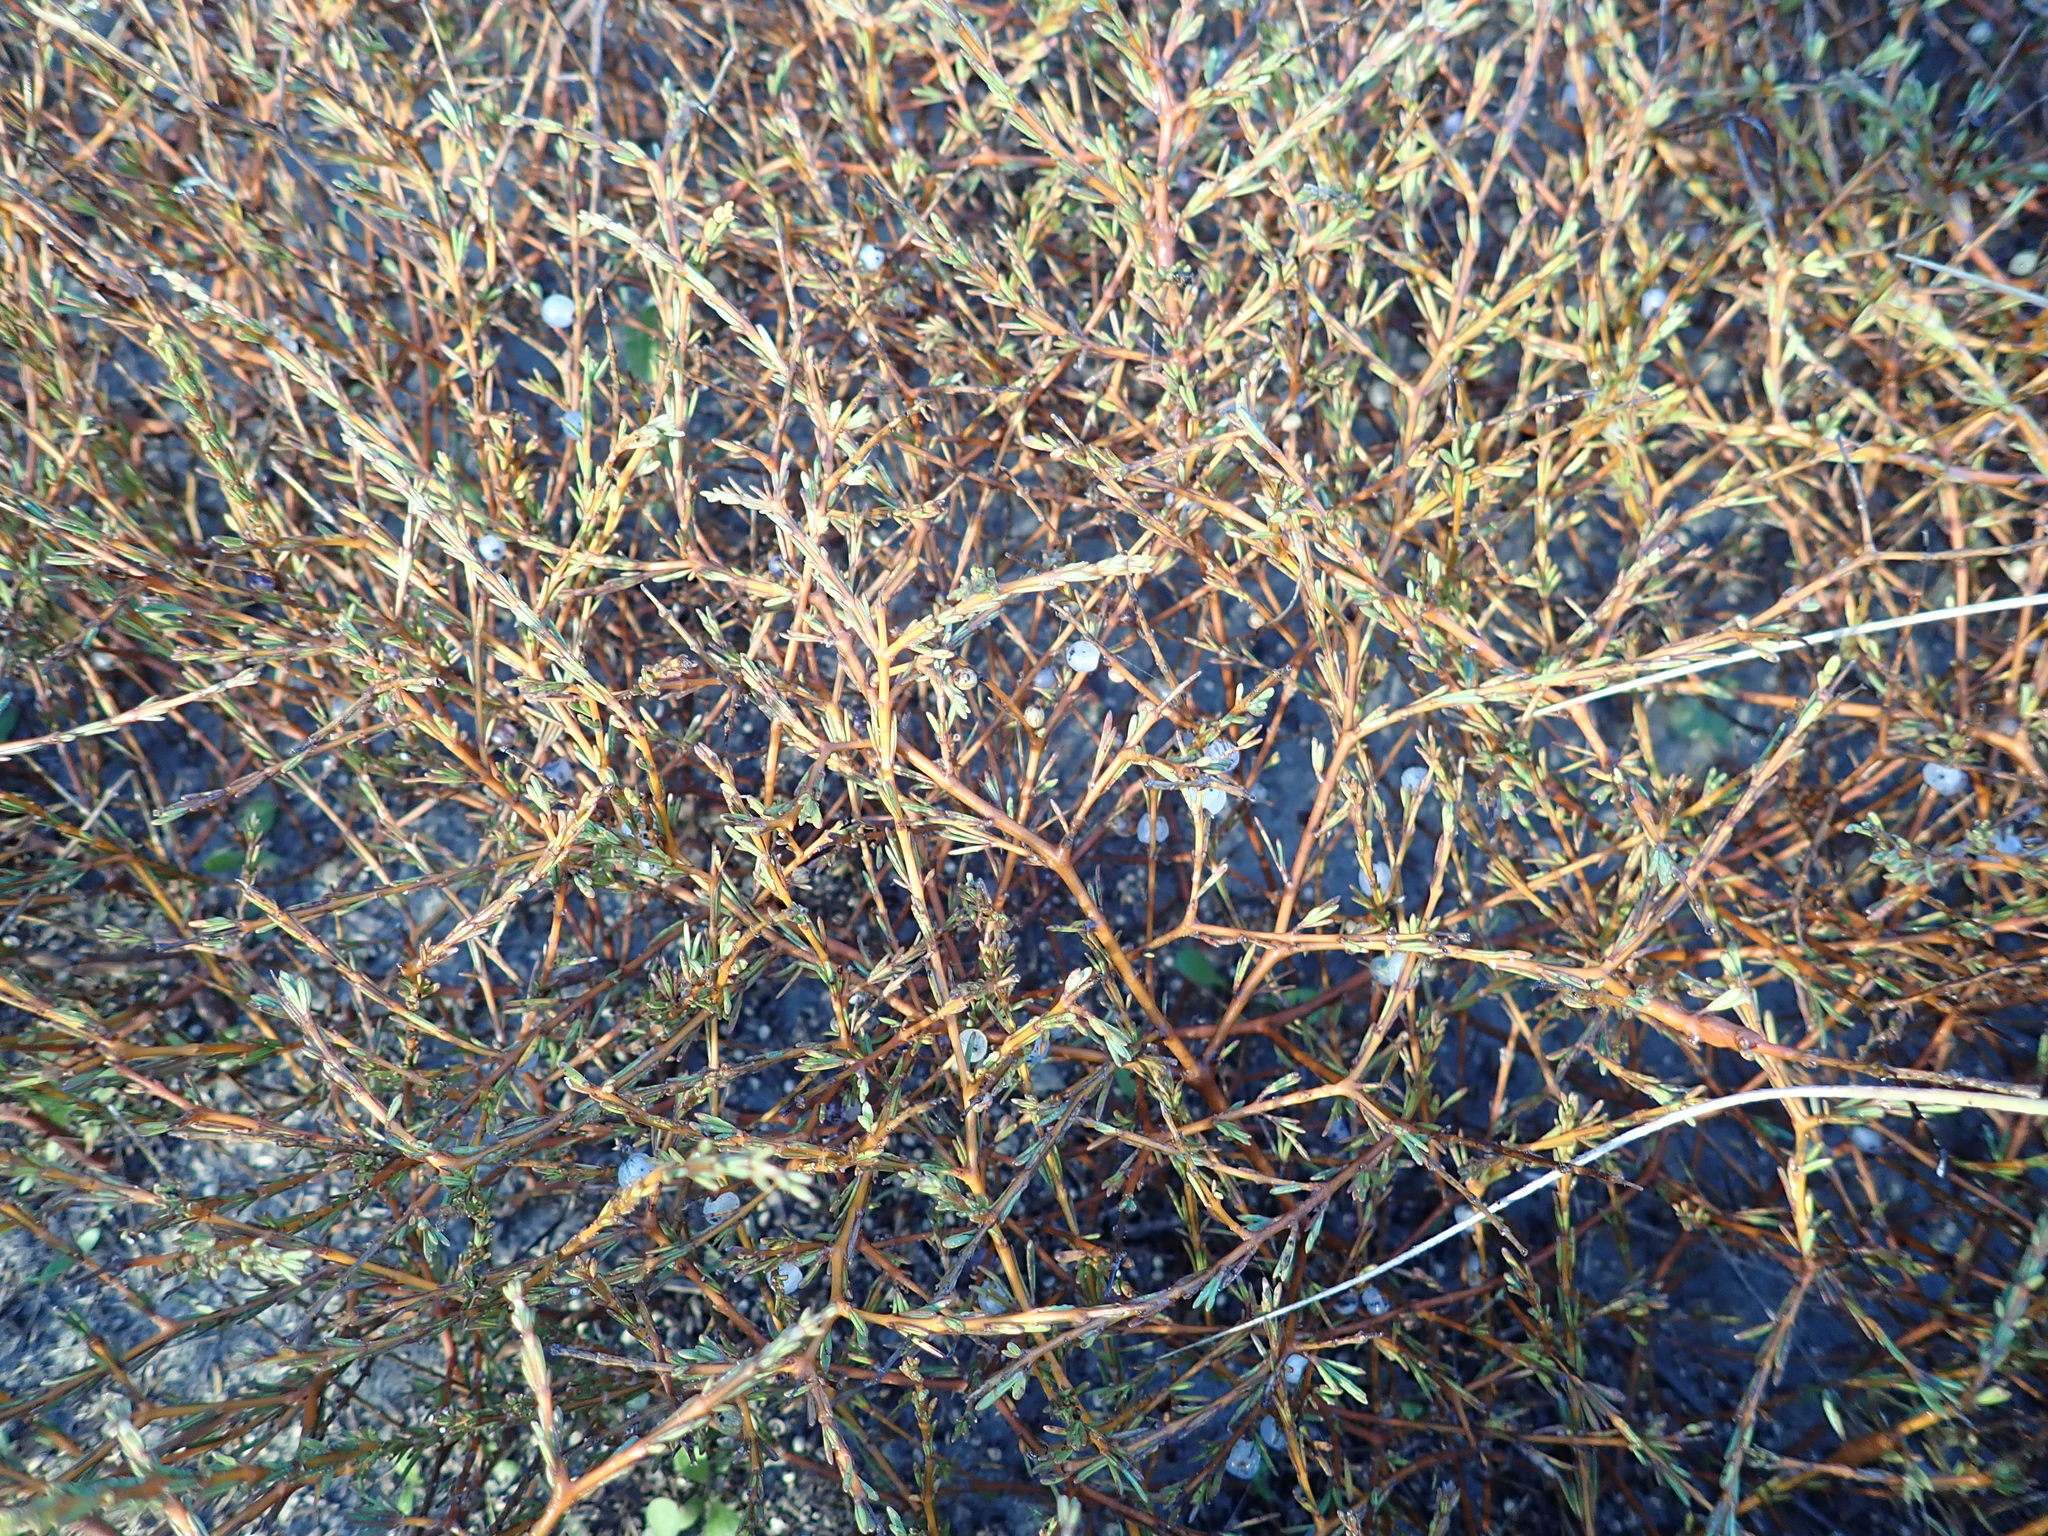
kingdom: Plantae
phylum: Tracheophyta
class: Magnoliopsida
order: Gentianales
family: Rubiaceae
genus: Coprosma
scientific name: Coprosma acerosa
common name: Sand coprosma
